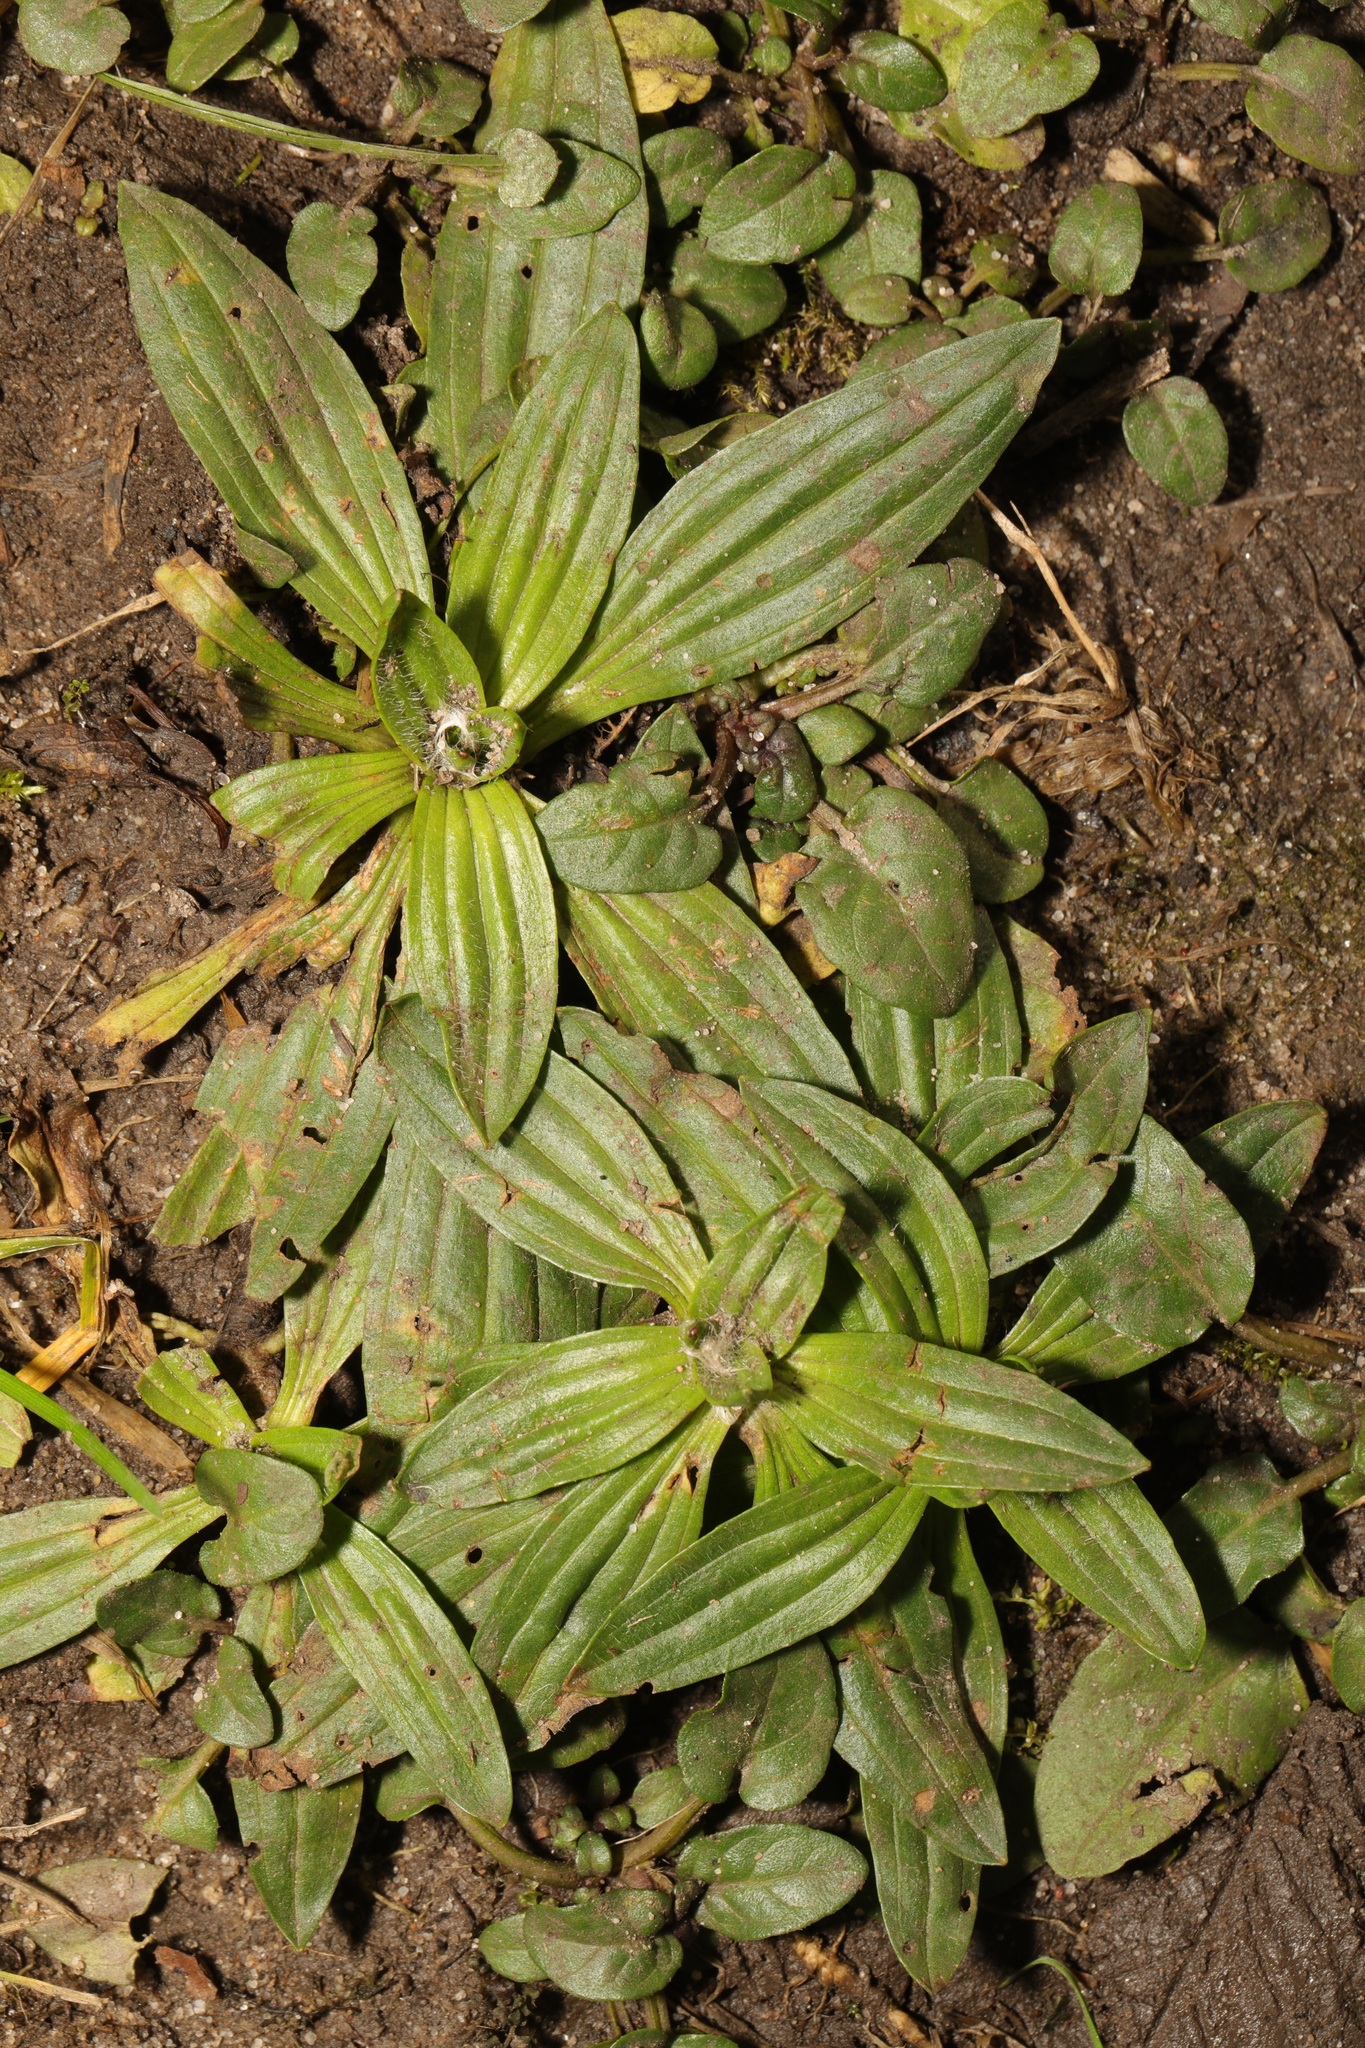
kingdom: Plantae
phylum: Tracheophyta
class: Magnoliopsida
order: Lamiales
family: Plantaginaceae
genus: Plantago
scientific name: Plantago lanceolata
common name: Ribwort plantain
